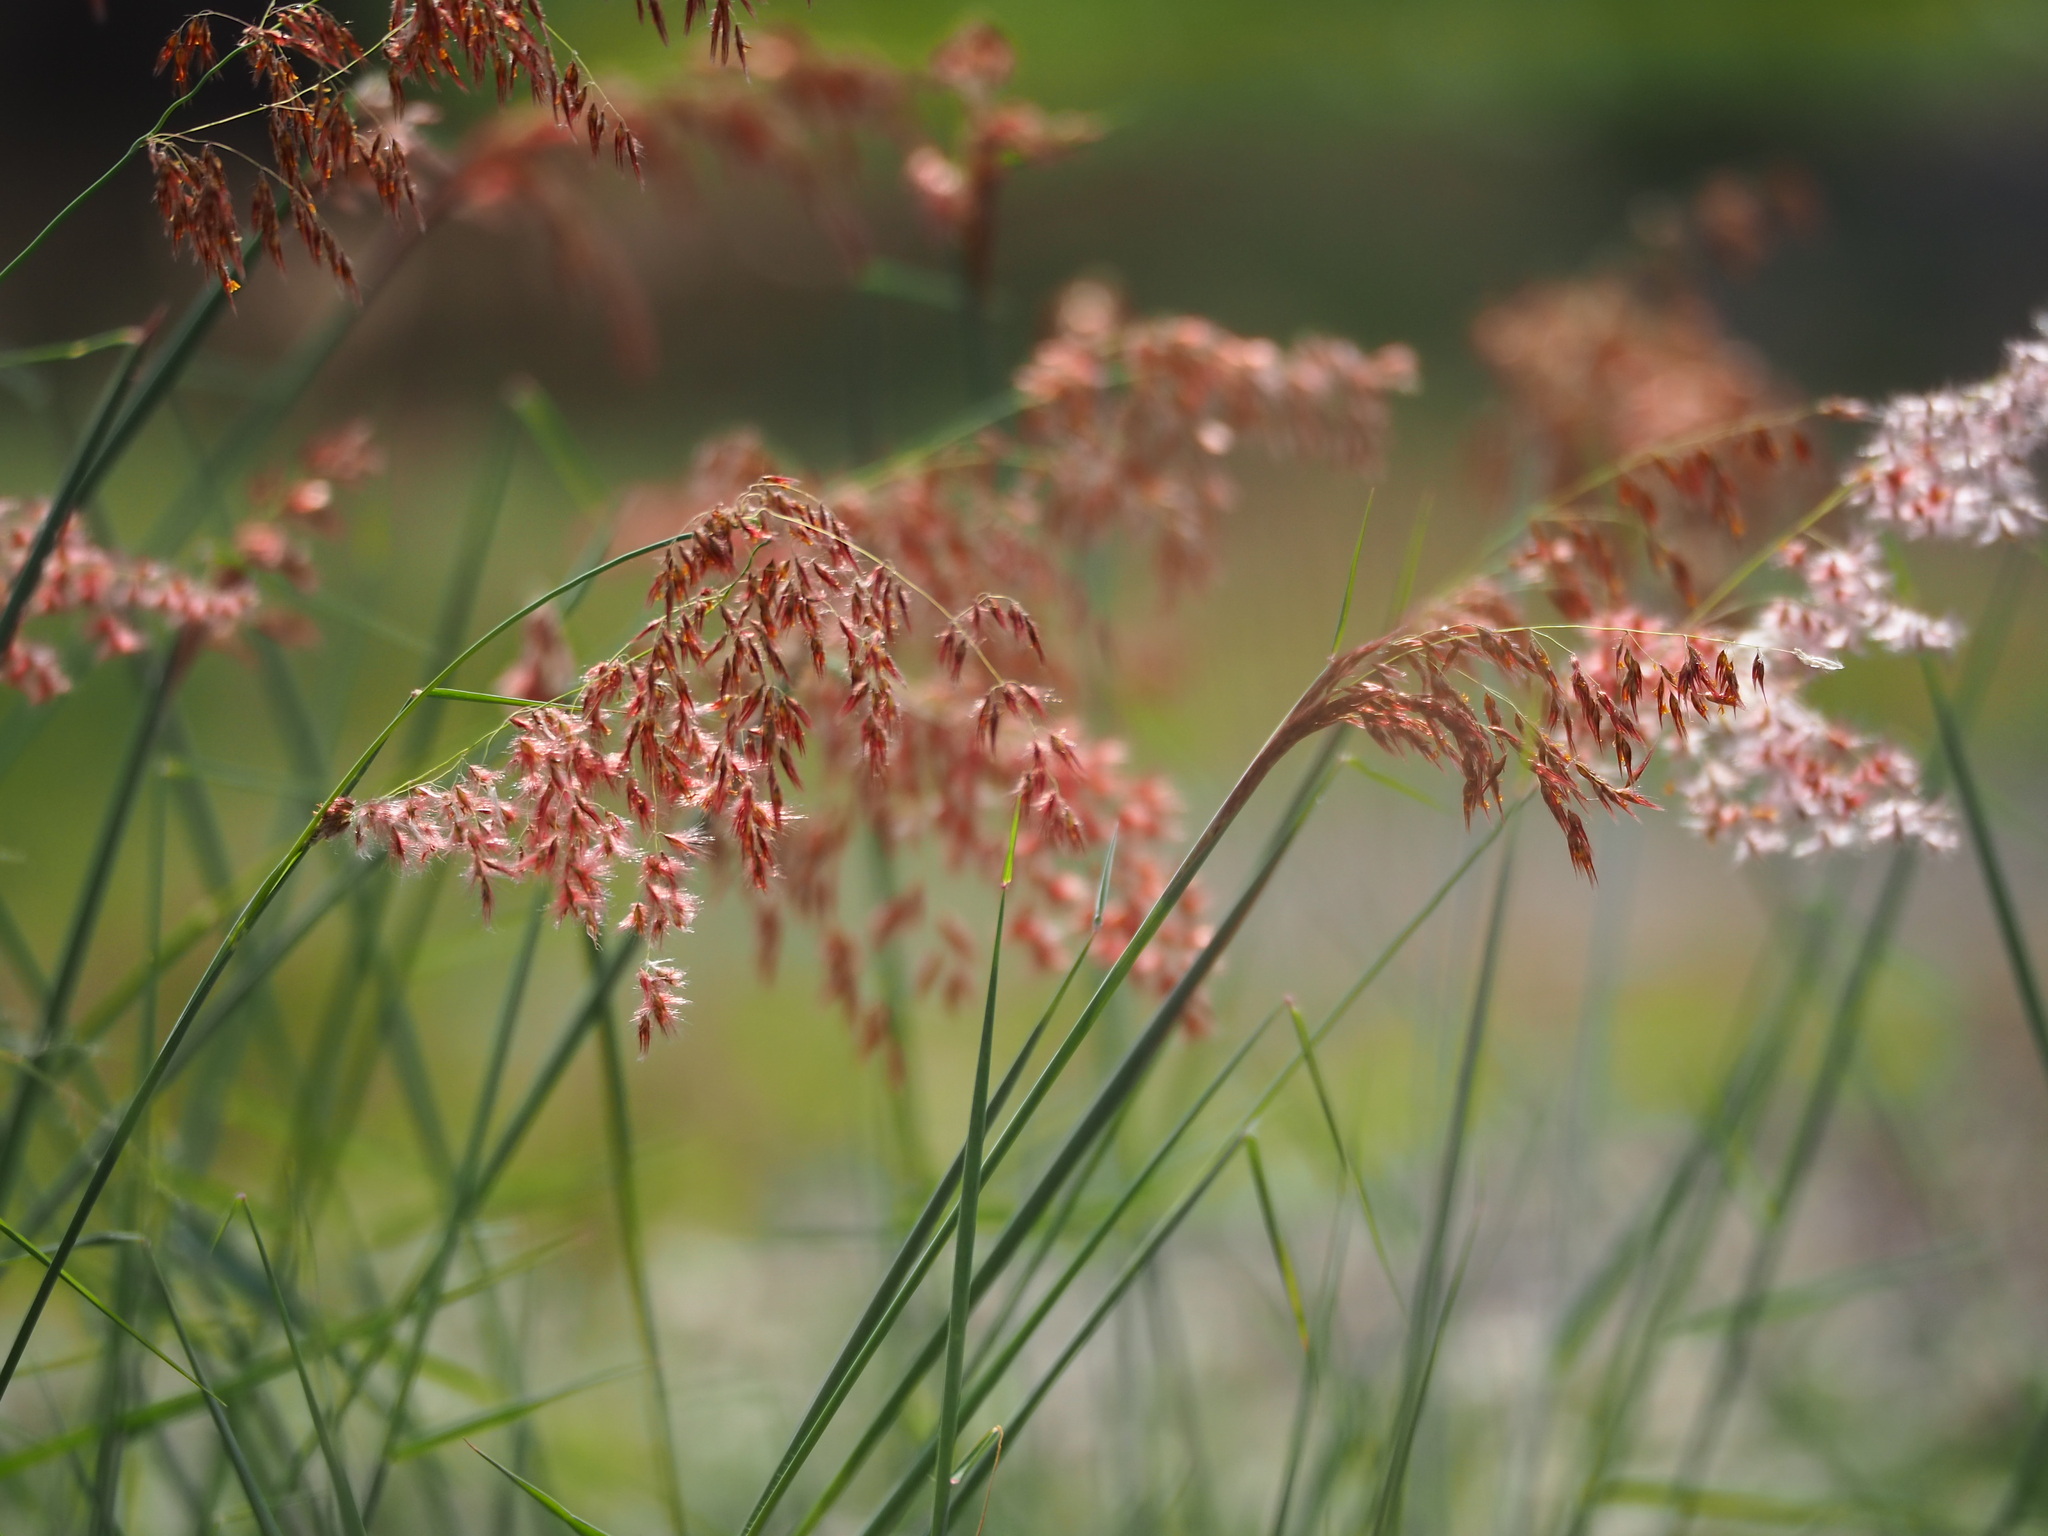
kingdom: Plantae
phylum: Tracheophyta
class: Liliopsida
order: Poales
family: Poaceae
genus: Melinis
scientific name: Melinis repens
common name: Rose natal grass
